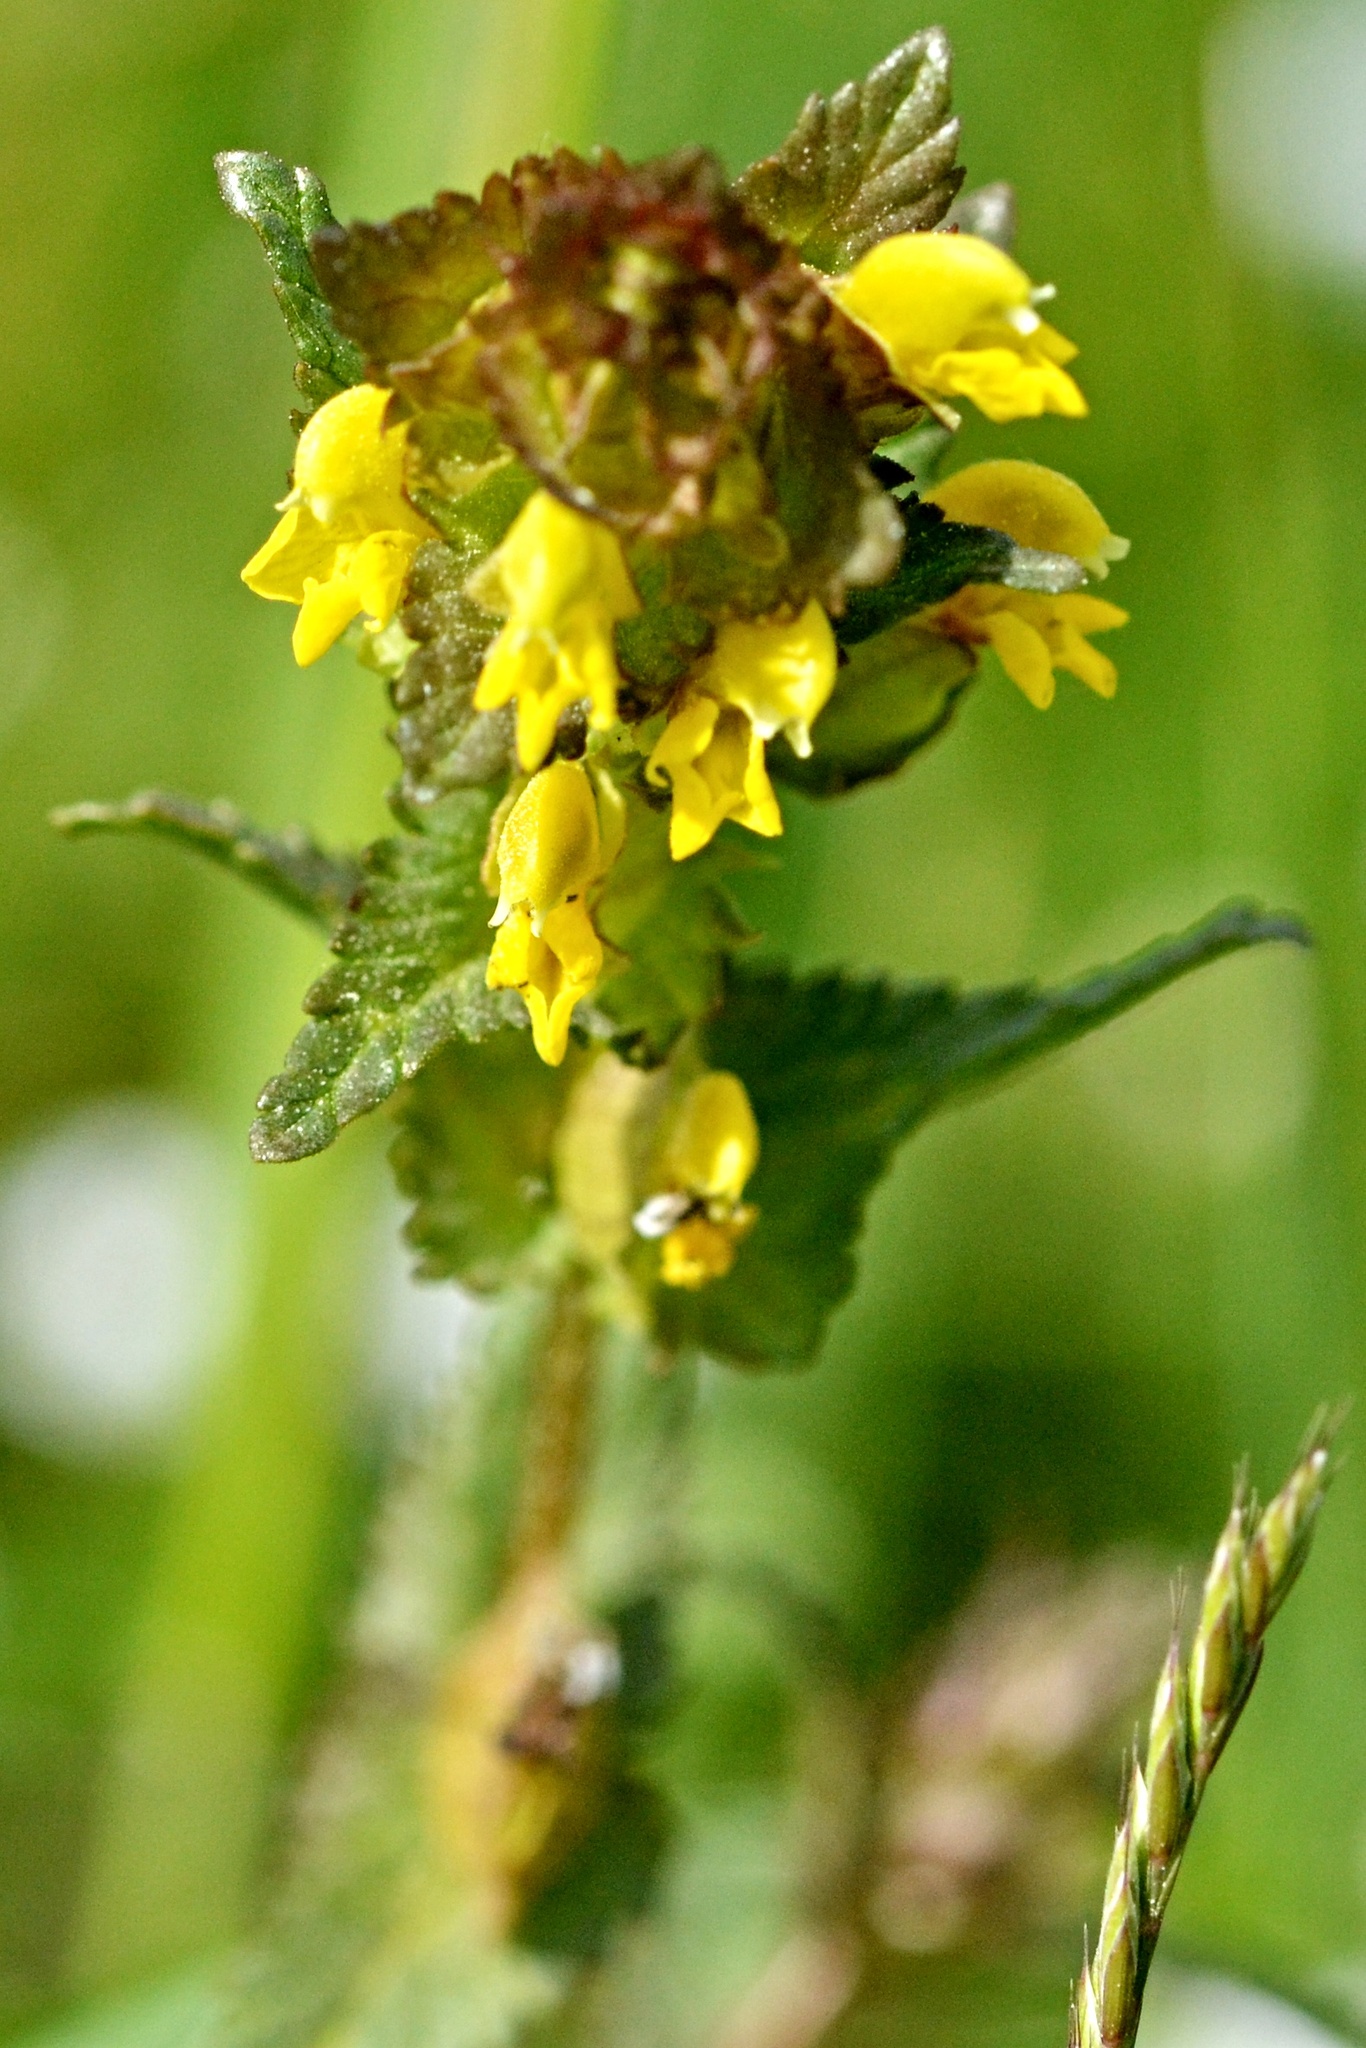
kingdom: Plantae
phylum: Tracheophyta
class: Magnoliopsida
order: Lamiales
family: Orobanchaceae
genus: Rhinanthus
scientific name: Rhinanthus minor
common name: Yellow-rattle
